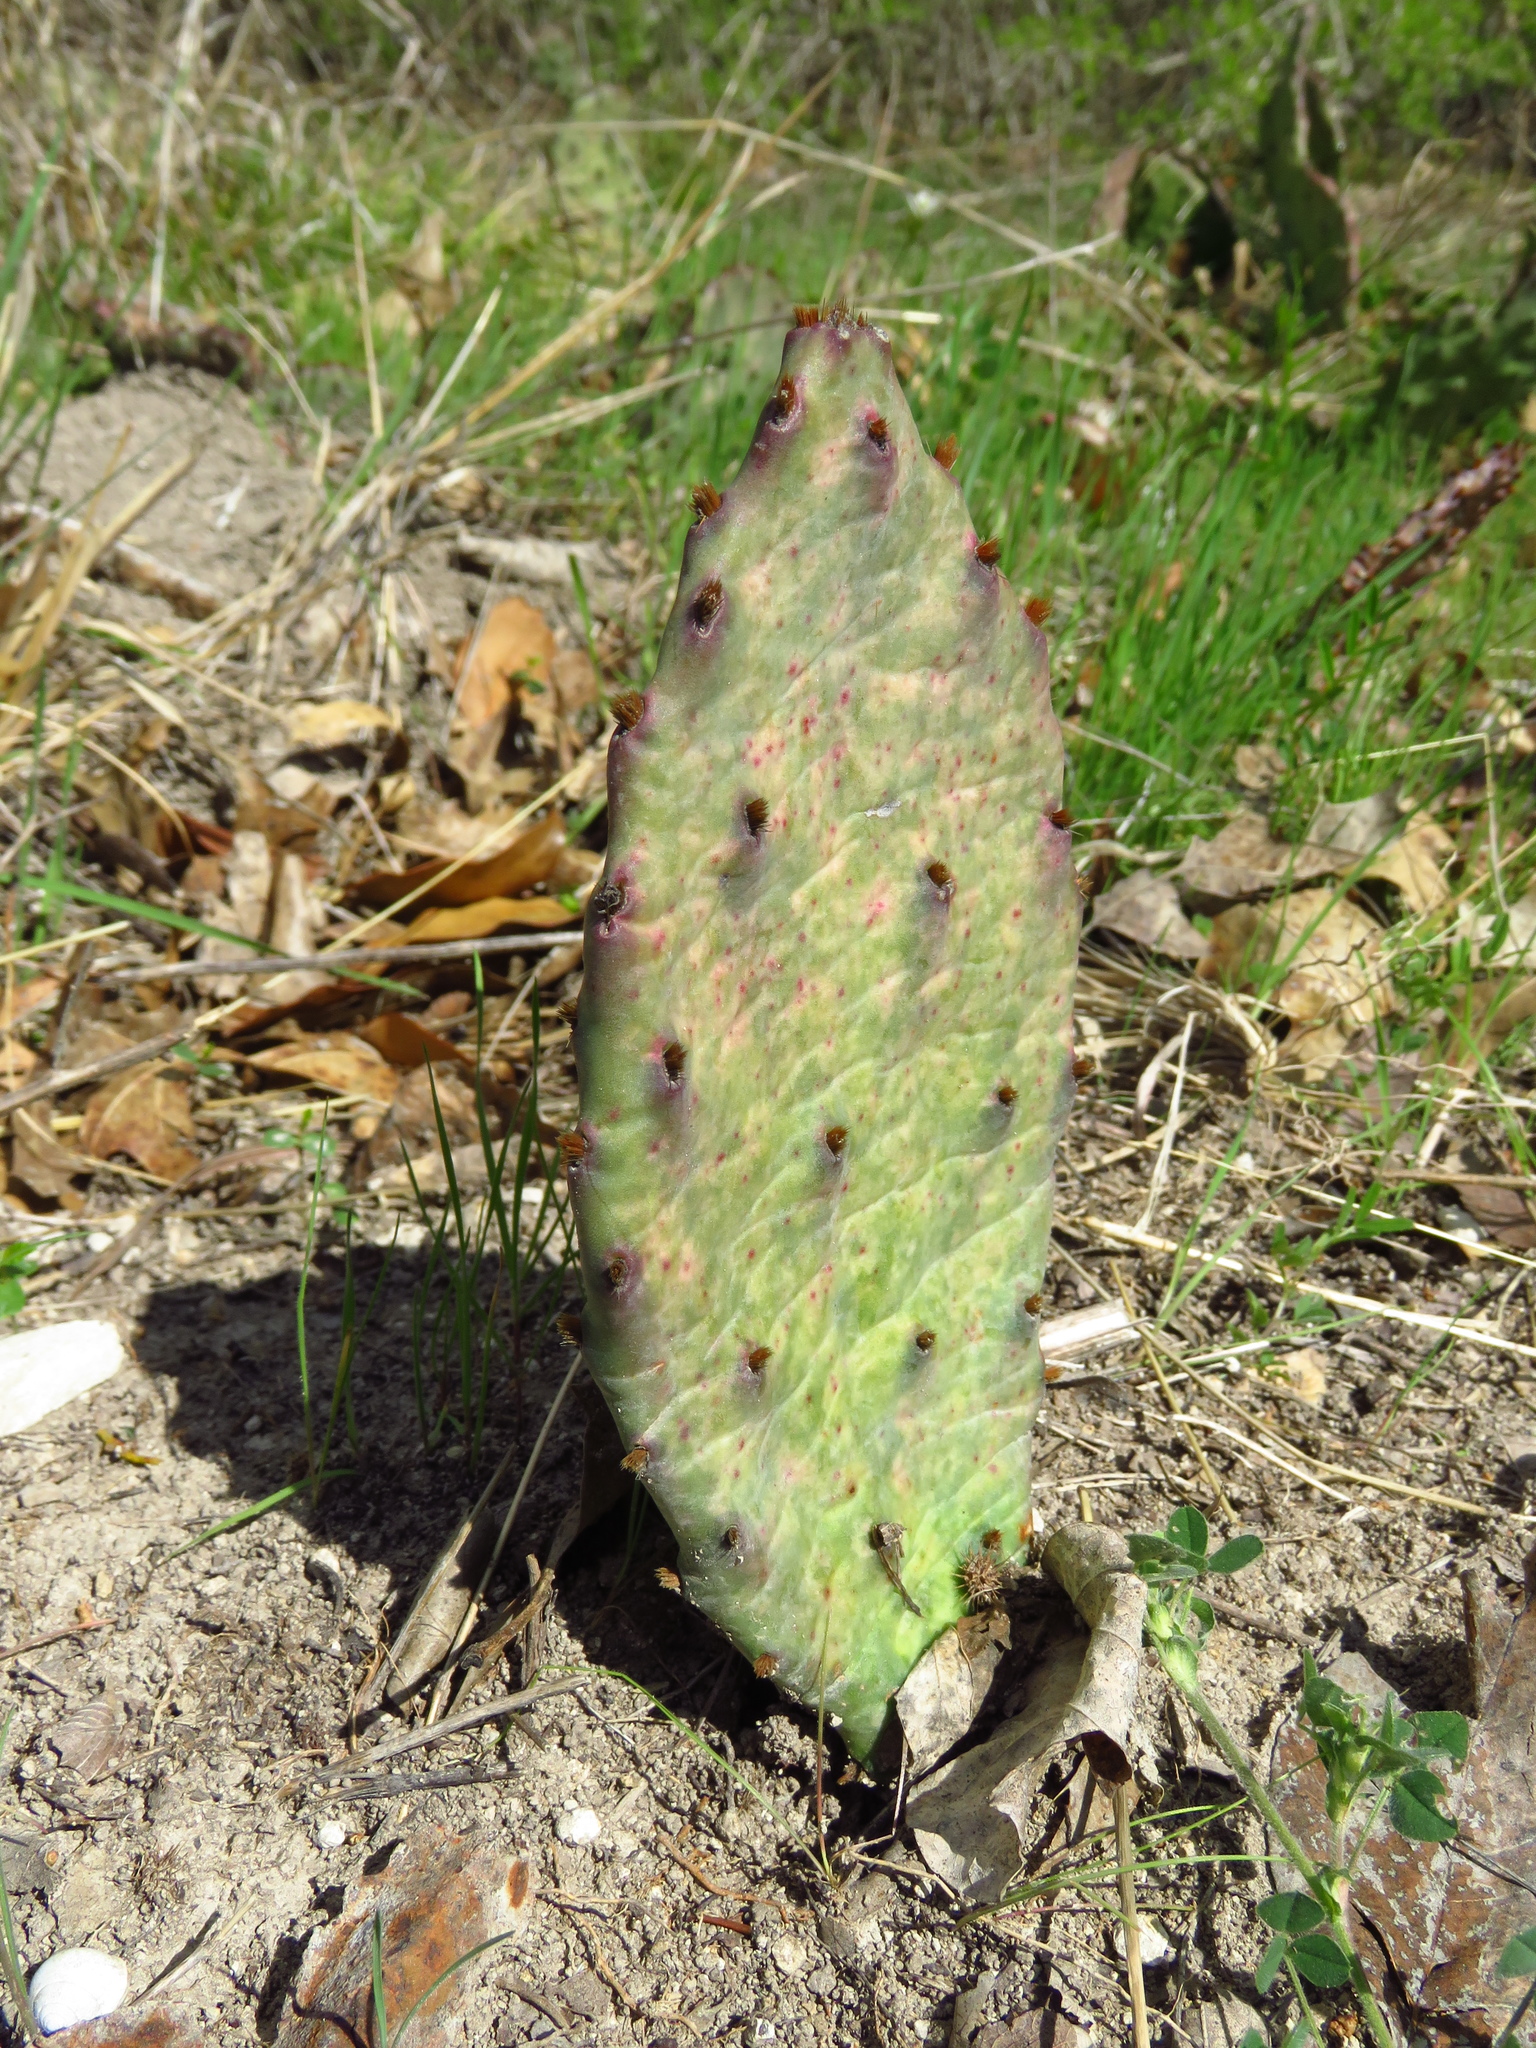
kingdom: Plantae
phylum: Tracheophyta
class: Magnoliopsida
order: Caryophyllales
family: Cactaceae
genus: Opuntia
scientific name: Opuntia macrorhiza
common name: Grassland pricklypear
